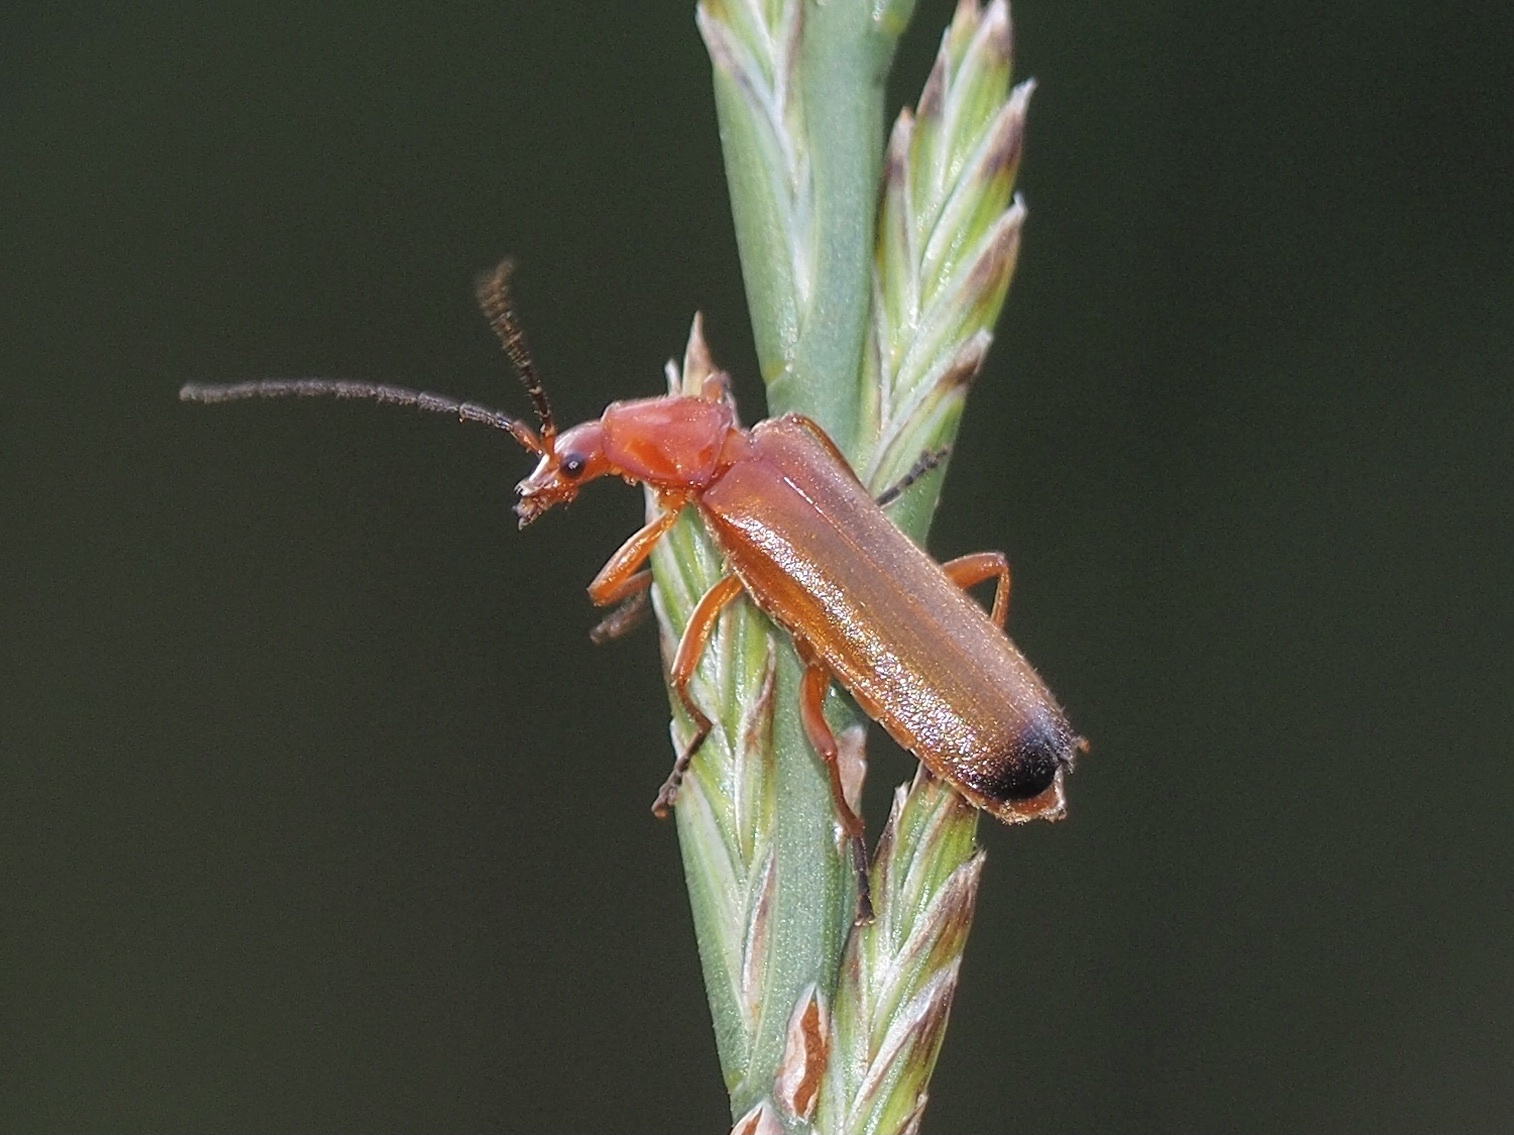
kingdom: Animalia
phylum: Arthropoda
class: Insecta
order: Coleoptera
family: Cantharidae
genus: Rhagonycha
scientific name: Rhagonycha fulva
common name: Common red soldier beetle
